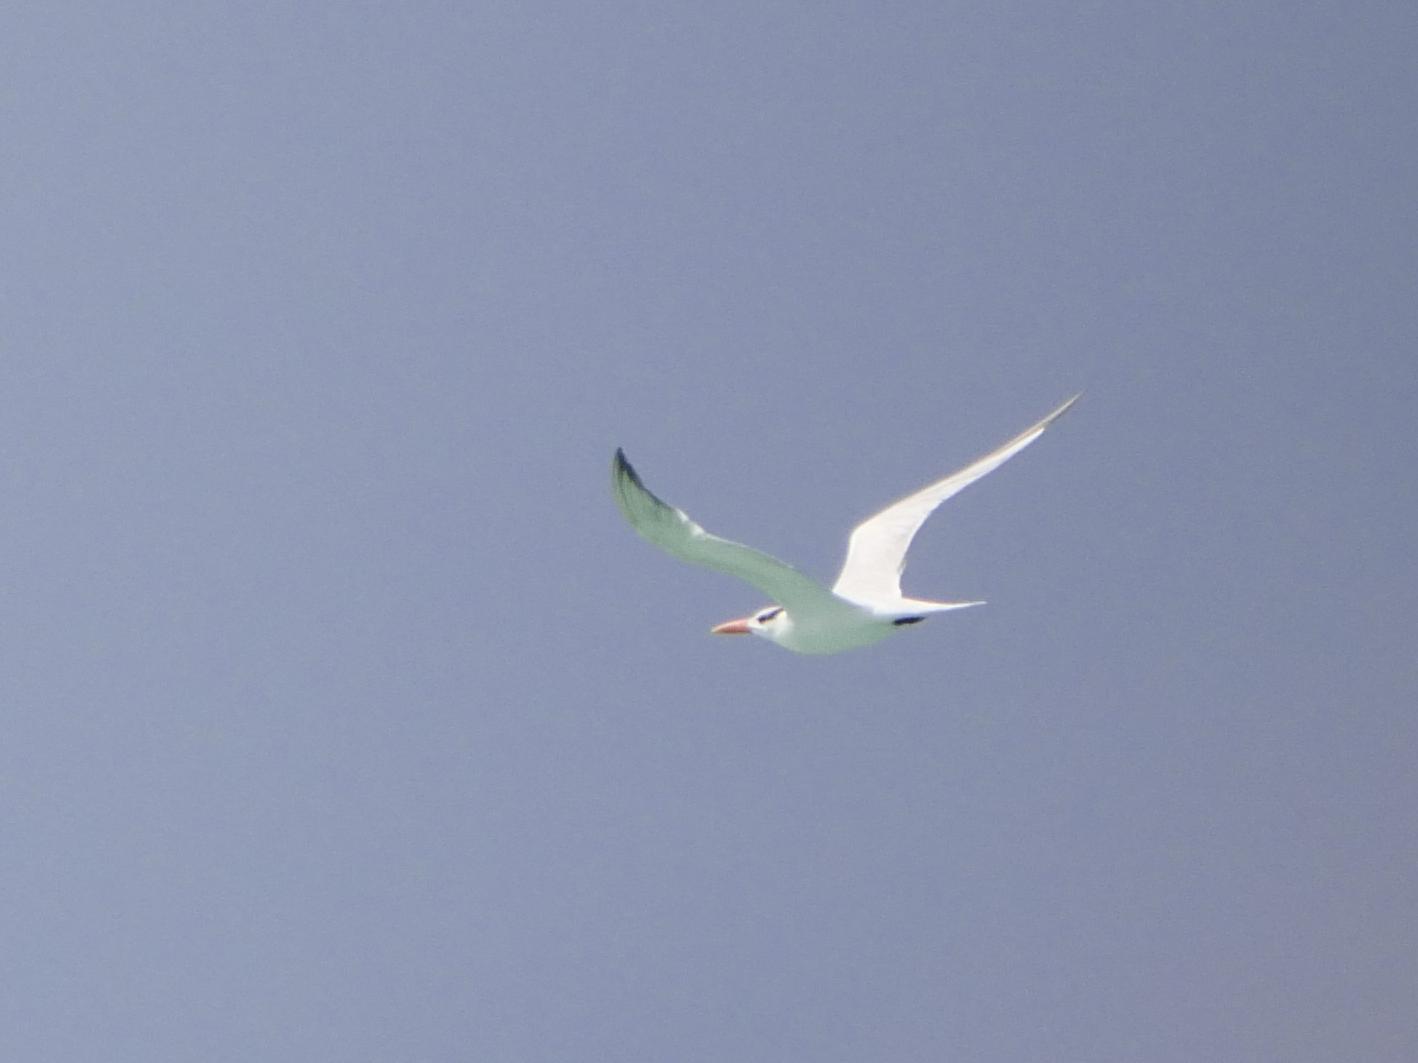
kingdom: Animalia
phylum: Chordata
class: Aves
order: Charadriiformes
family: Laridae
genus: Thalasseus
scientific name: Thalasseus maximus
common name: Royal tern
